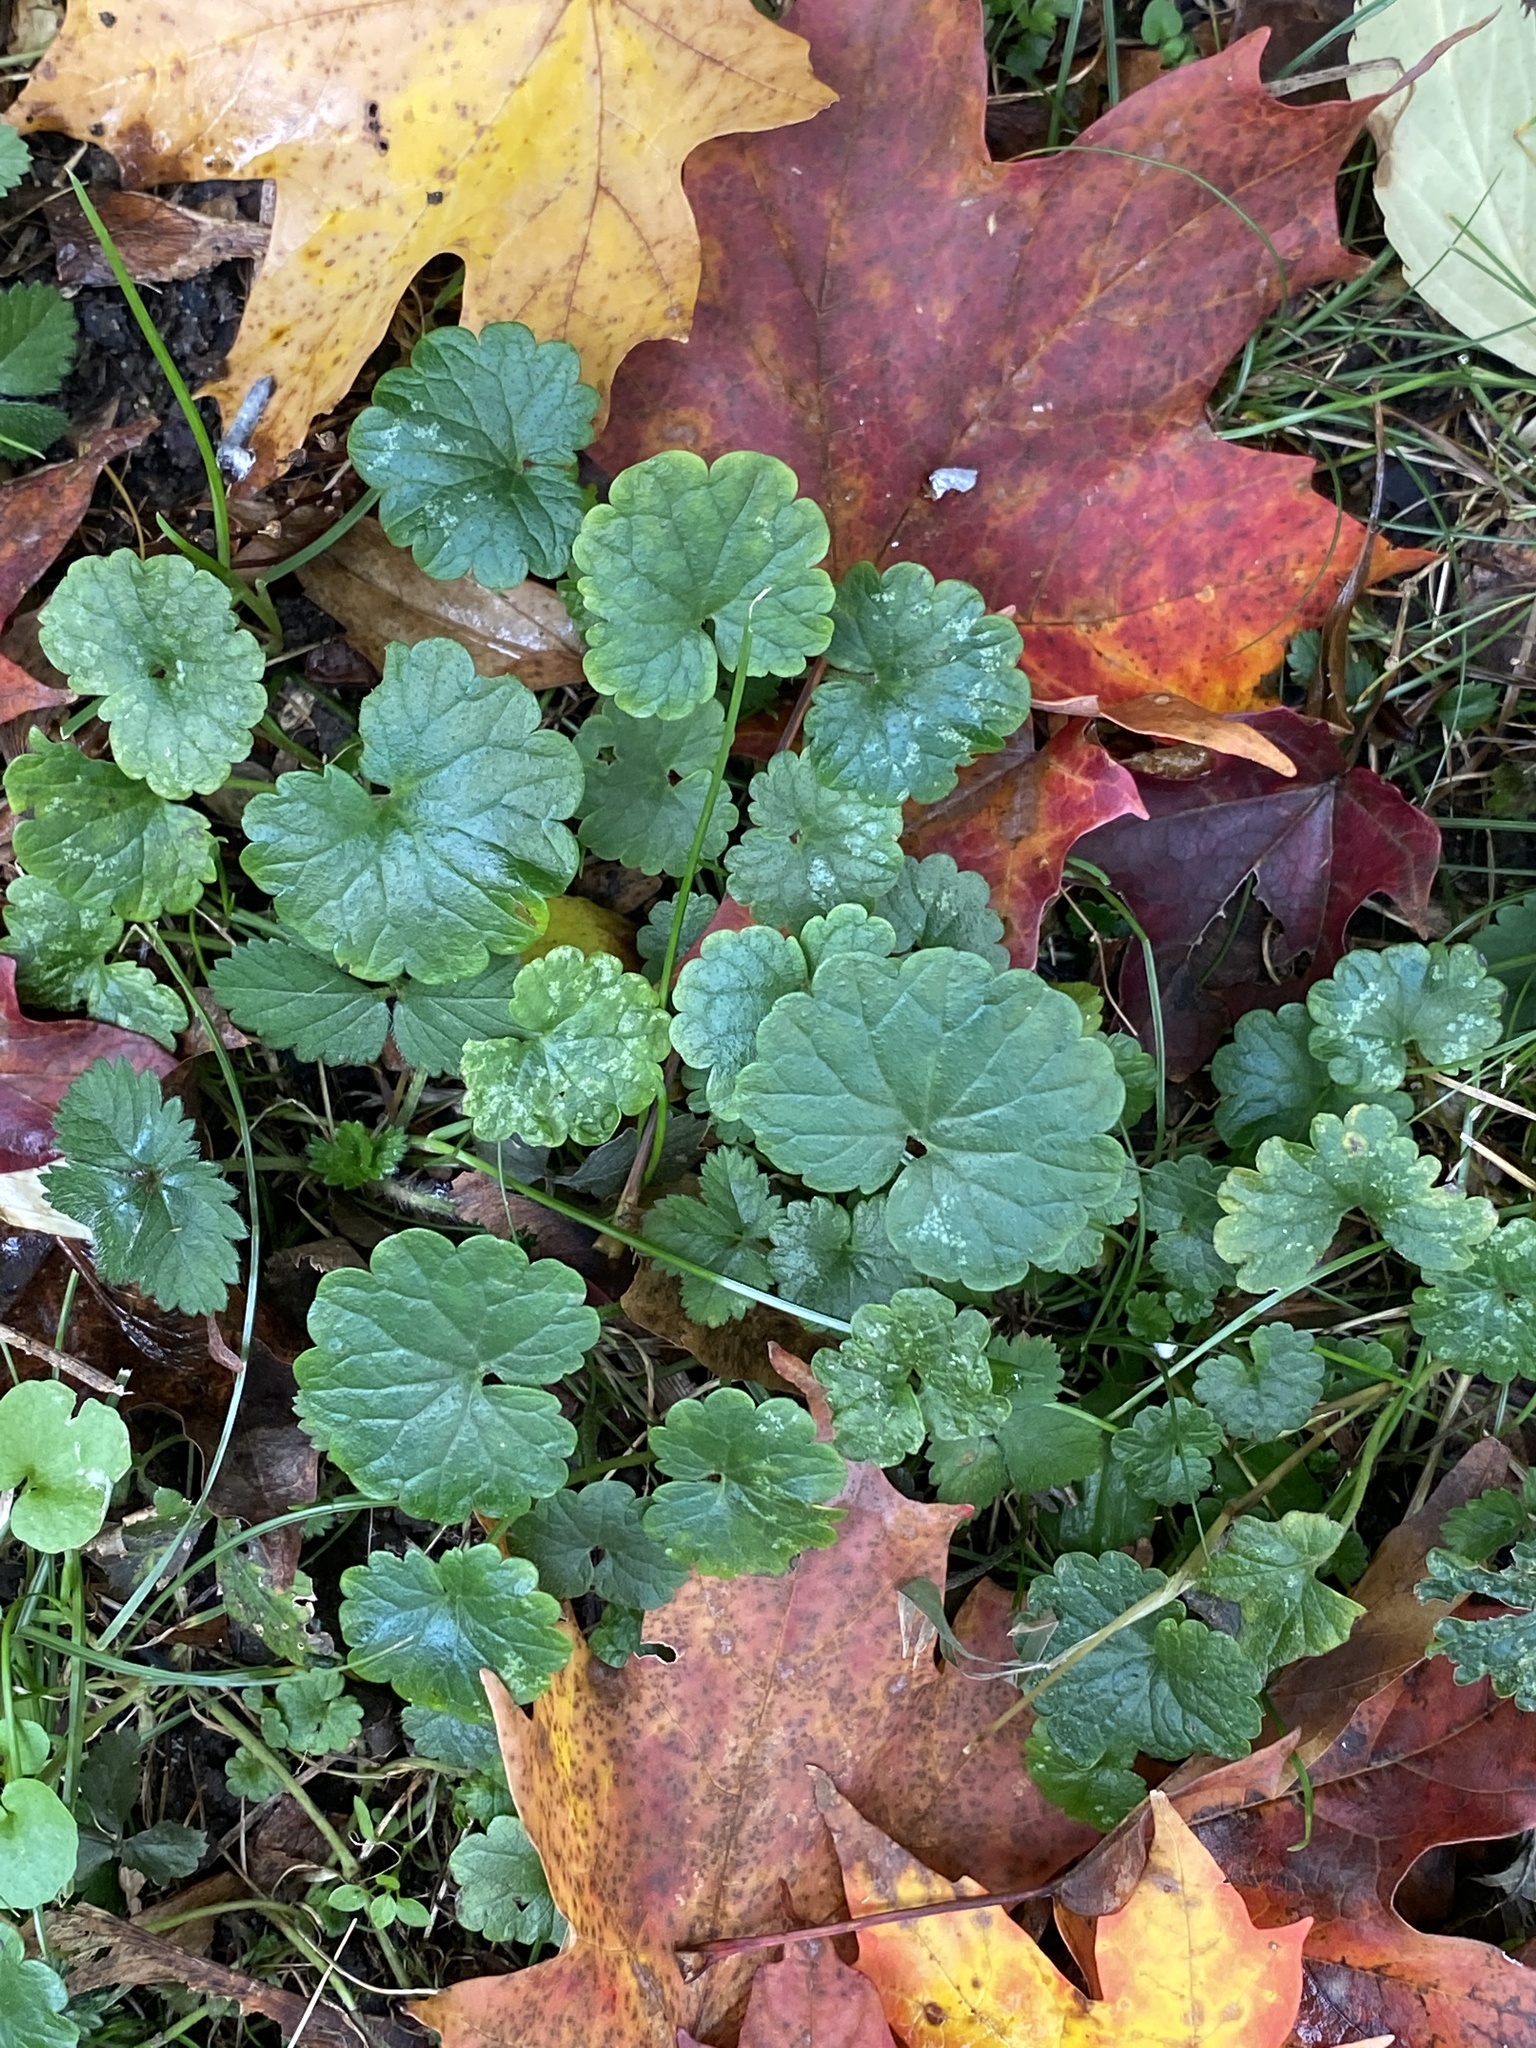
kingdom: Plantae
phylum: Tracheophyta
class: Magnoliopsida
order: Lamiales
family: Lamiaceae
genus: Glechoma
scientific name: Glechoma hederacea
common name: Ground ivy
